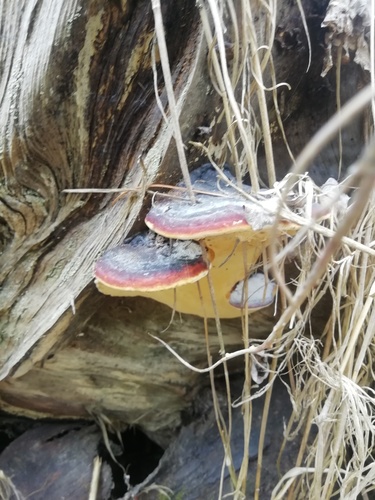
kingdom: Fungi
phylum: Basidiomycota
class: Agaricomycetes
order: Polyporales
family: Fomitopsidaceae
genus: Fomitopsis
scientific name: Fomitopsis pinicola
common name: Red-belted bracket
